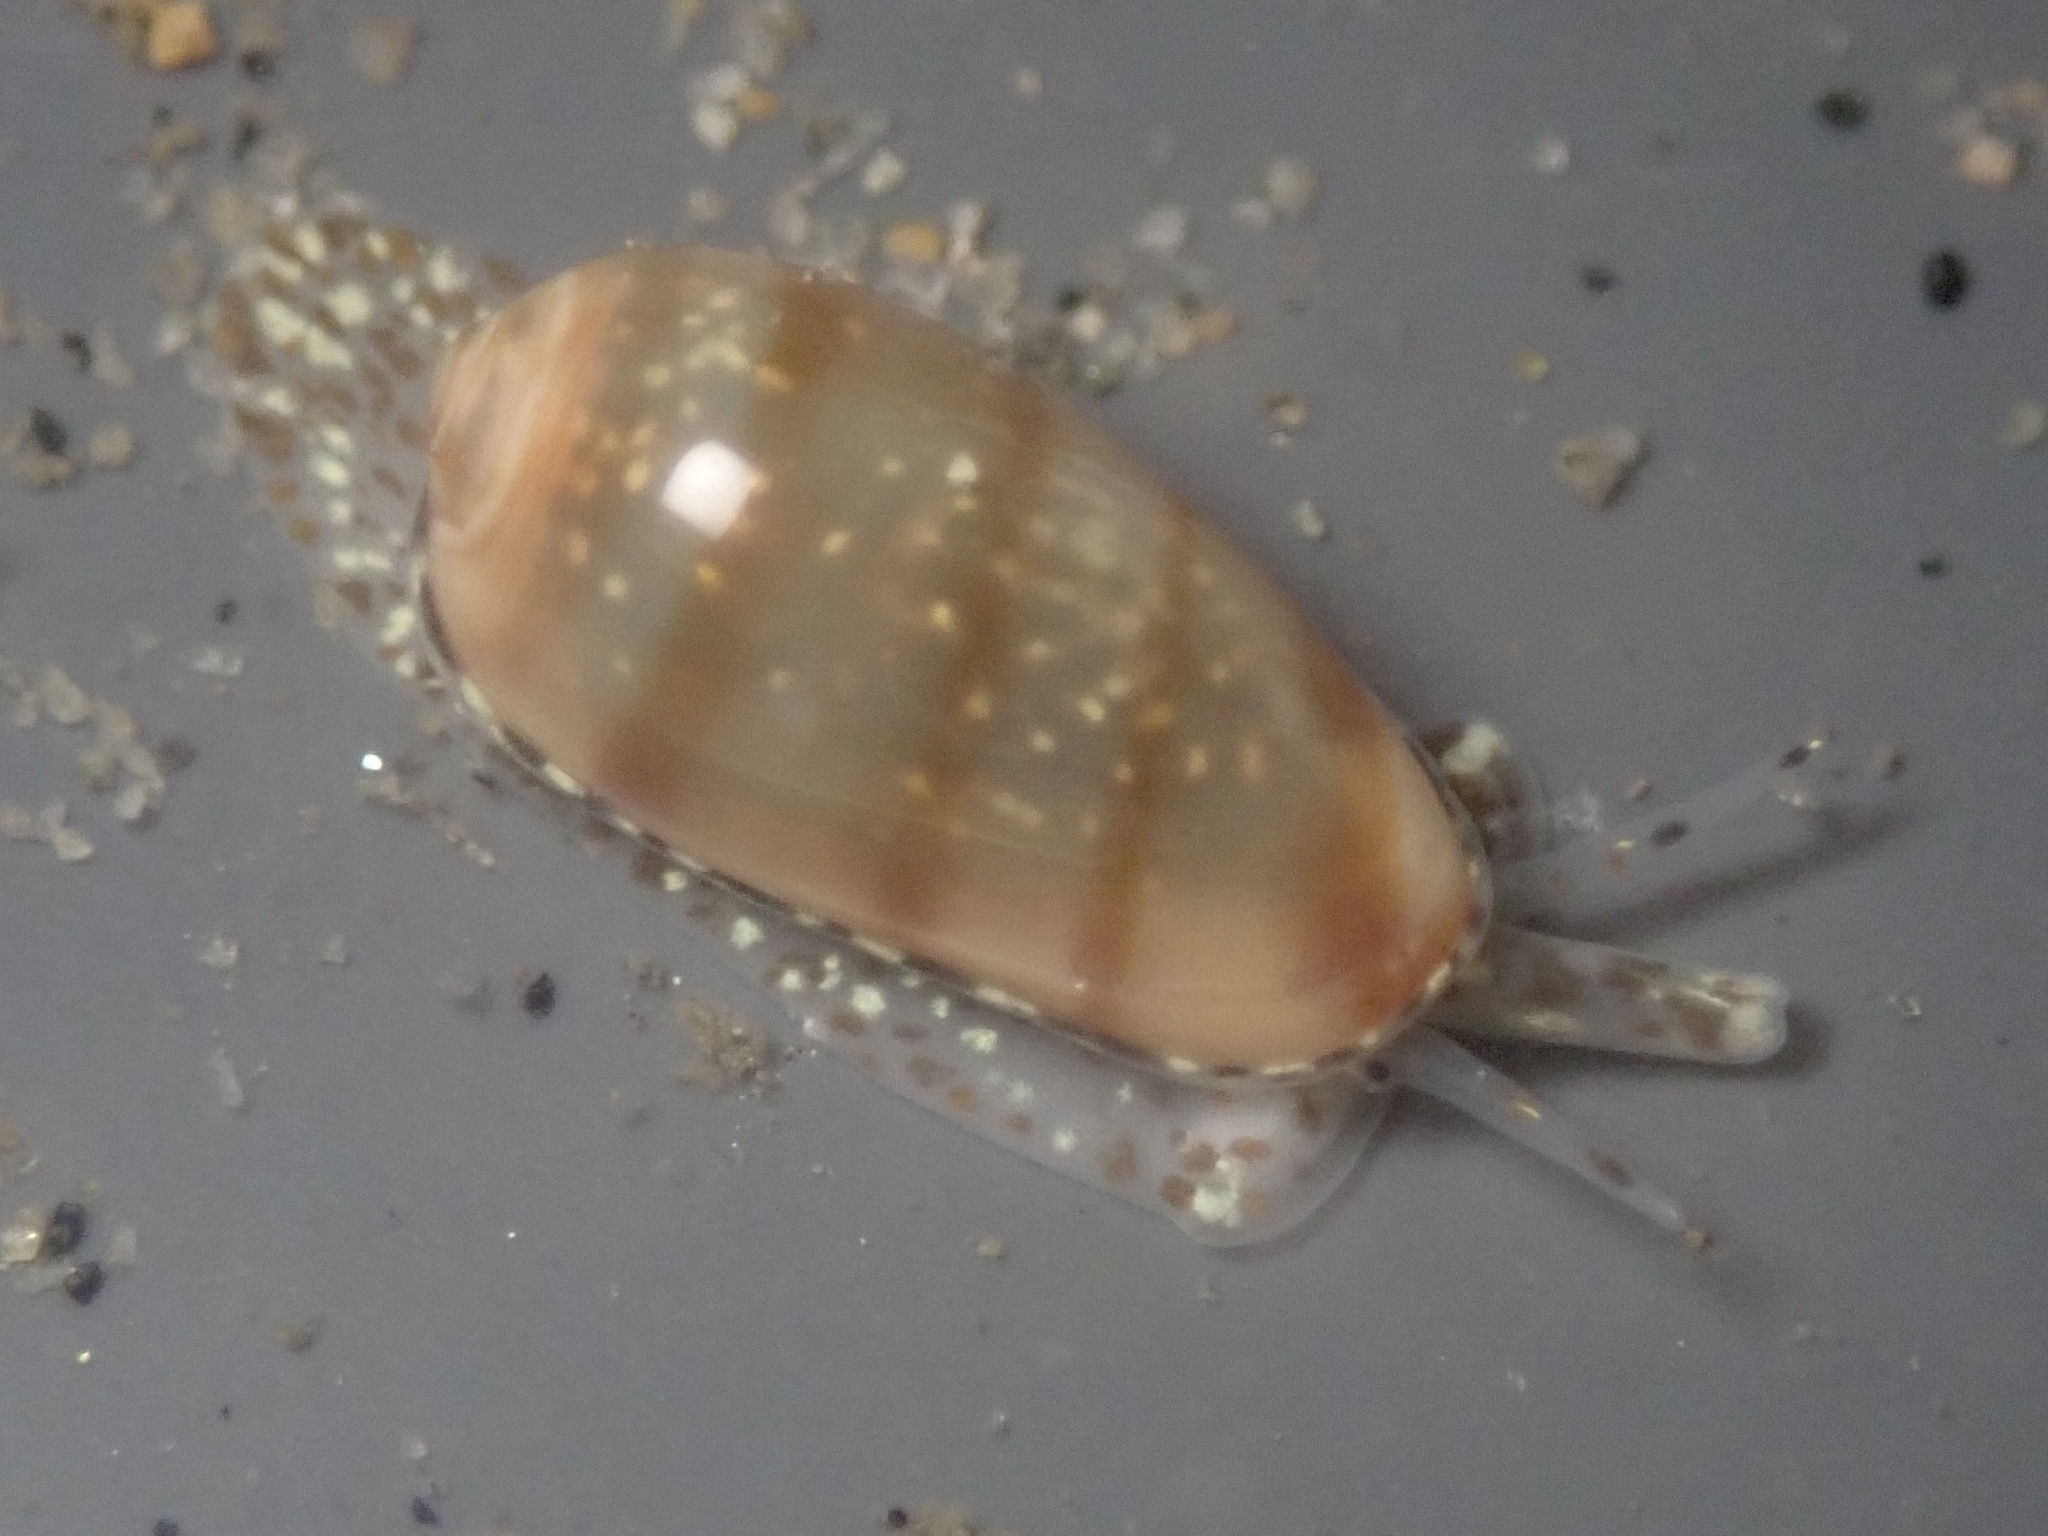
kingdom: Animalia
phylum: Mollusca
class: Gastropoda
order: Neogastropoda
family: Marginellidae
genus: Volvarina
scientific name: Volvarina taeniolata
